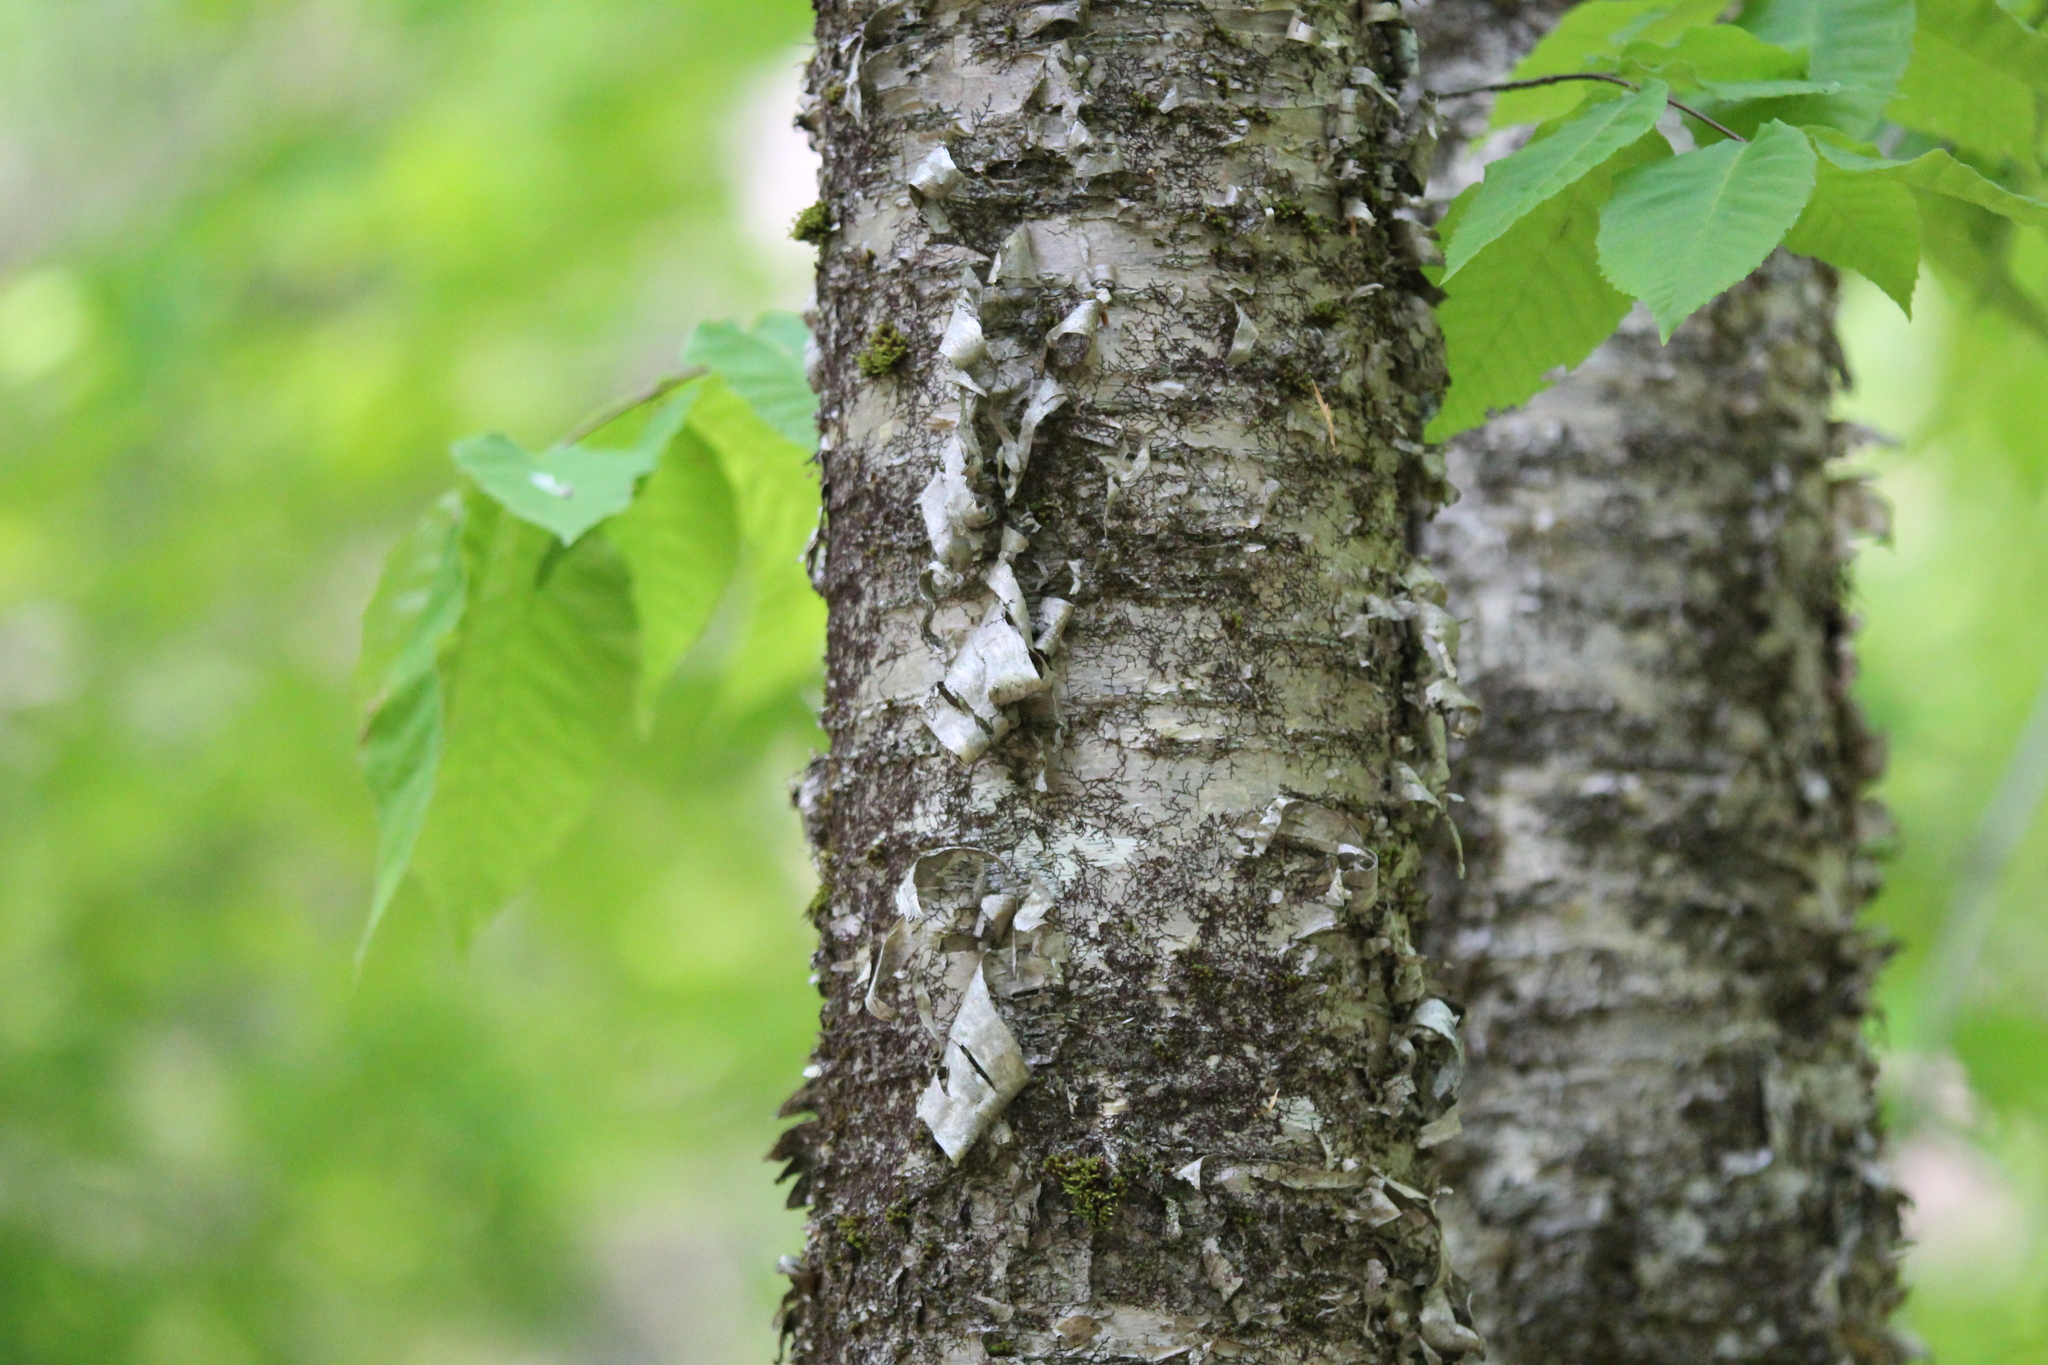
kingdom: Plantae
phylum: Tracheophyta
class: Magnoliopsida
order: Fagales
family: Betulaceae
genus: Betula
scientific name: Betula alleghaniensis
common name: Yellow birch
